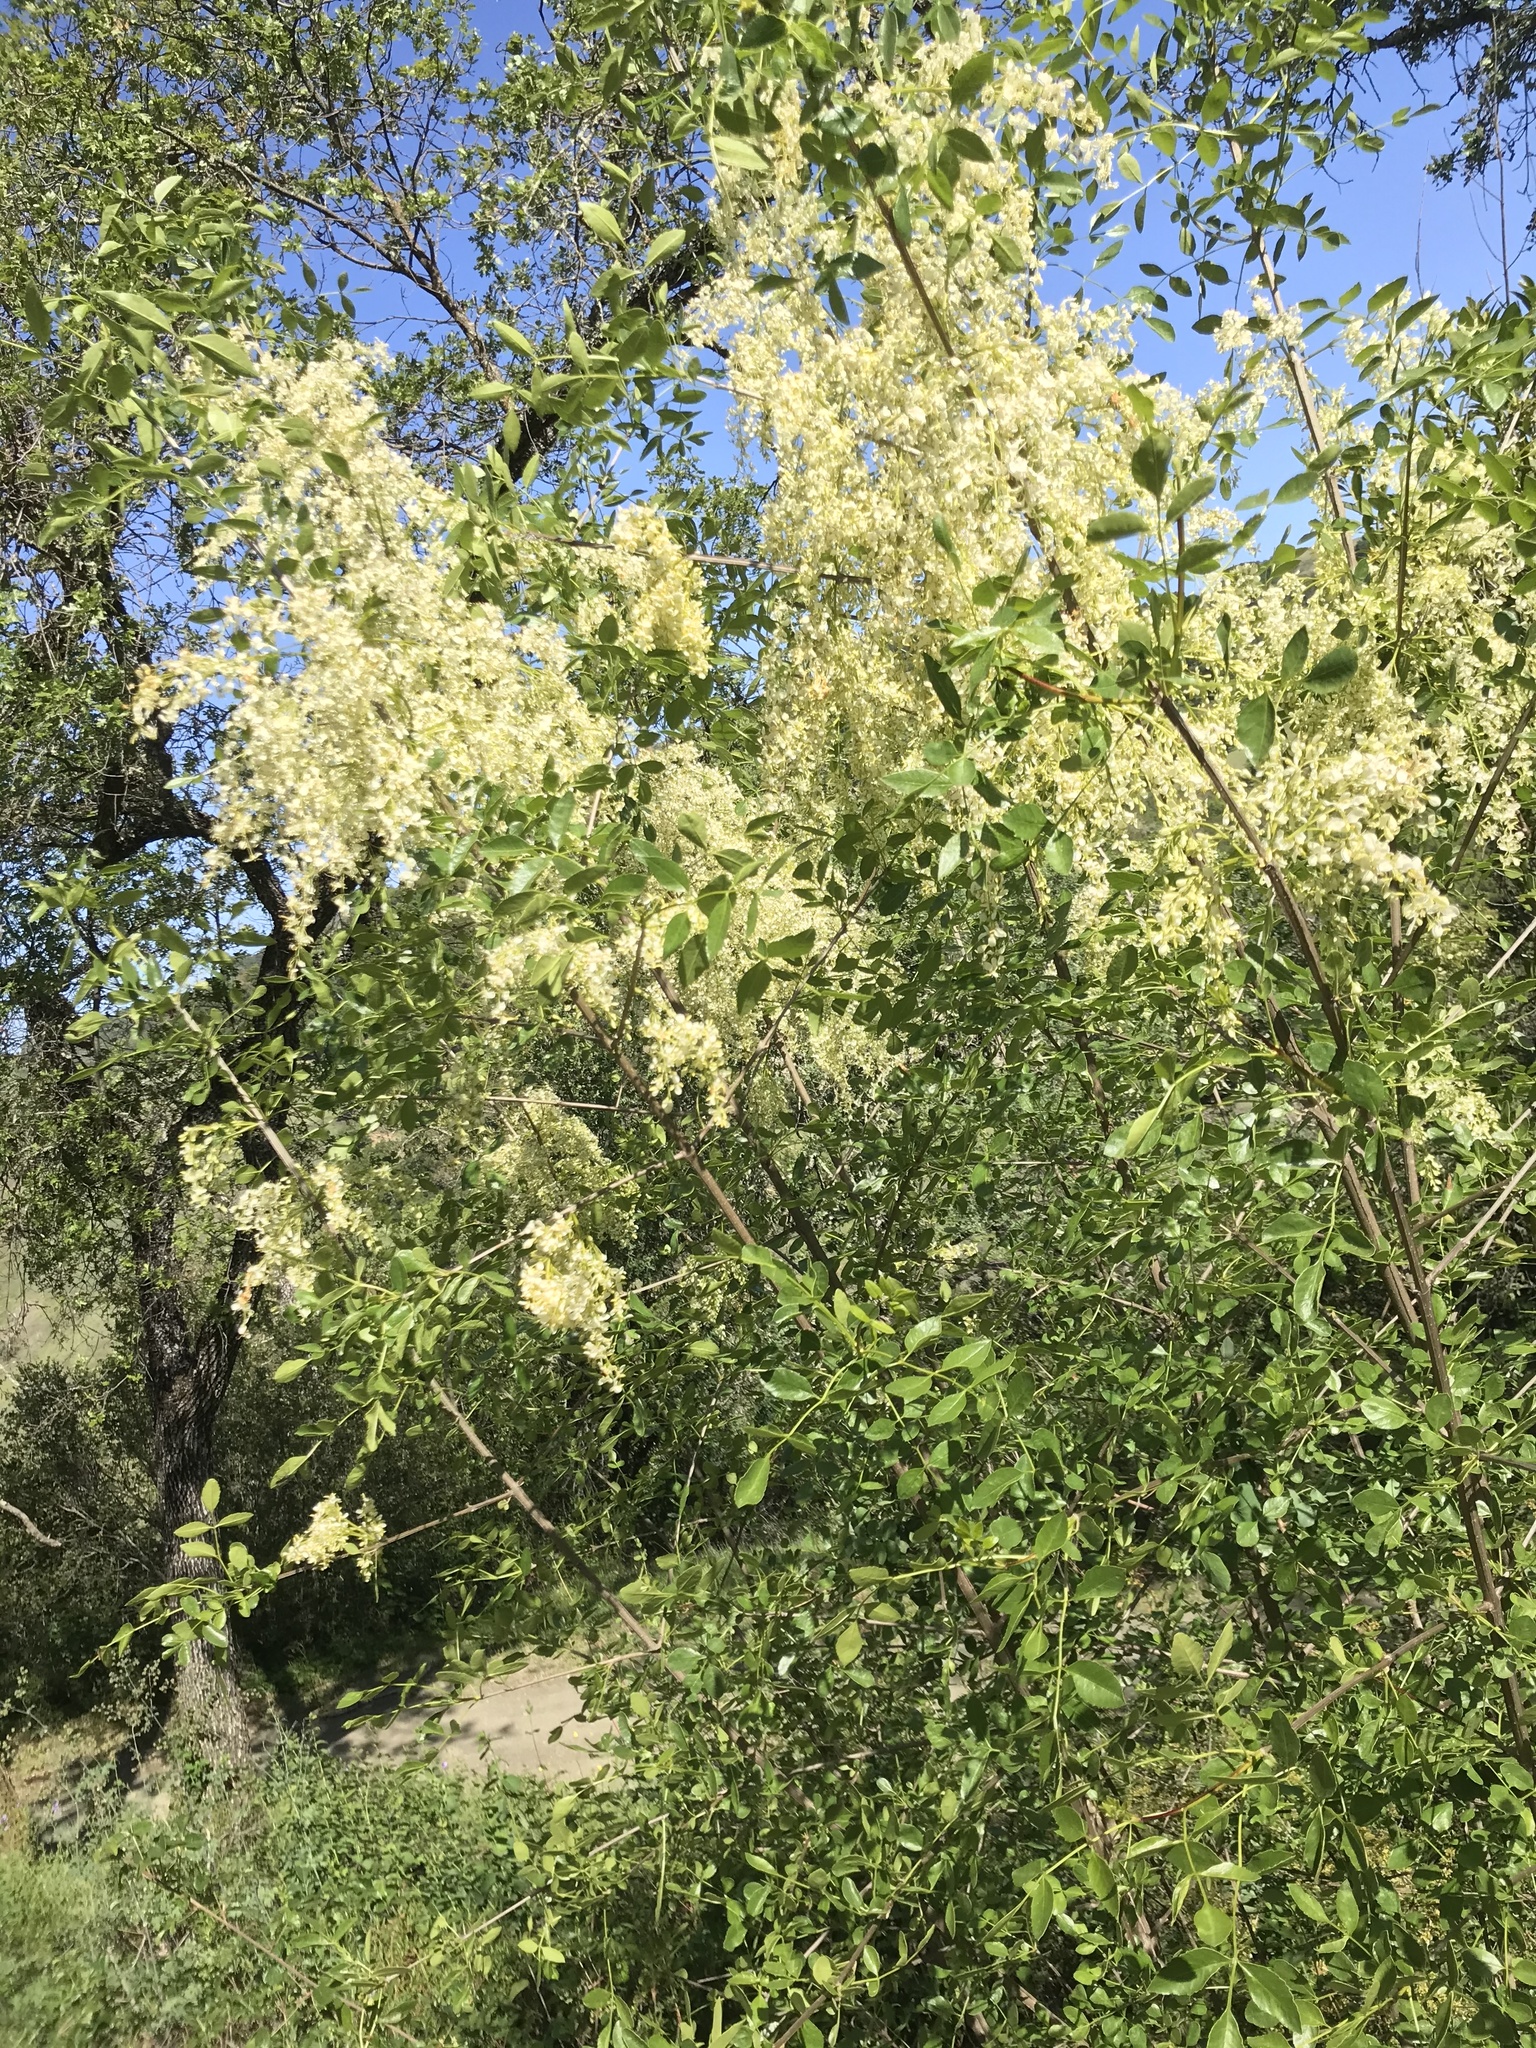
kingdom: Plantae
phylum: Tracheophyta
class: Magnoliopsida
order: Lamiales
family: Oleaceae
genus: Fraxinus
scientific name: Fraxinus dipetala
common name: California ash
